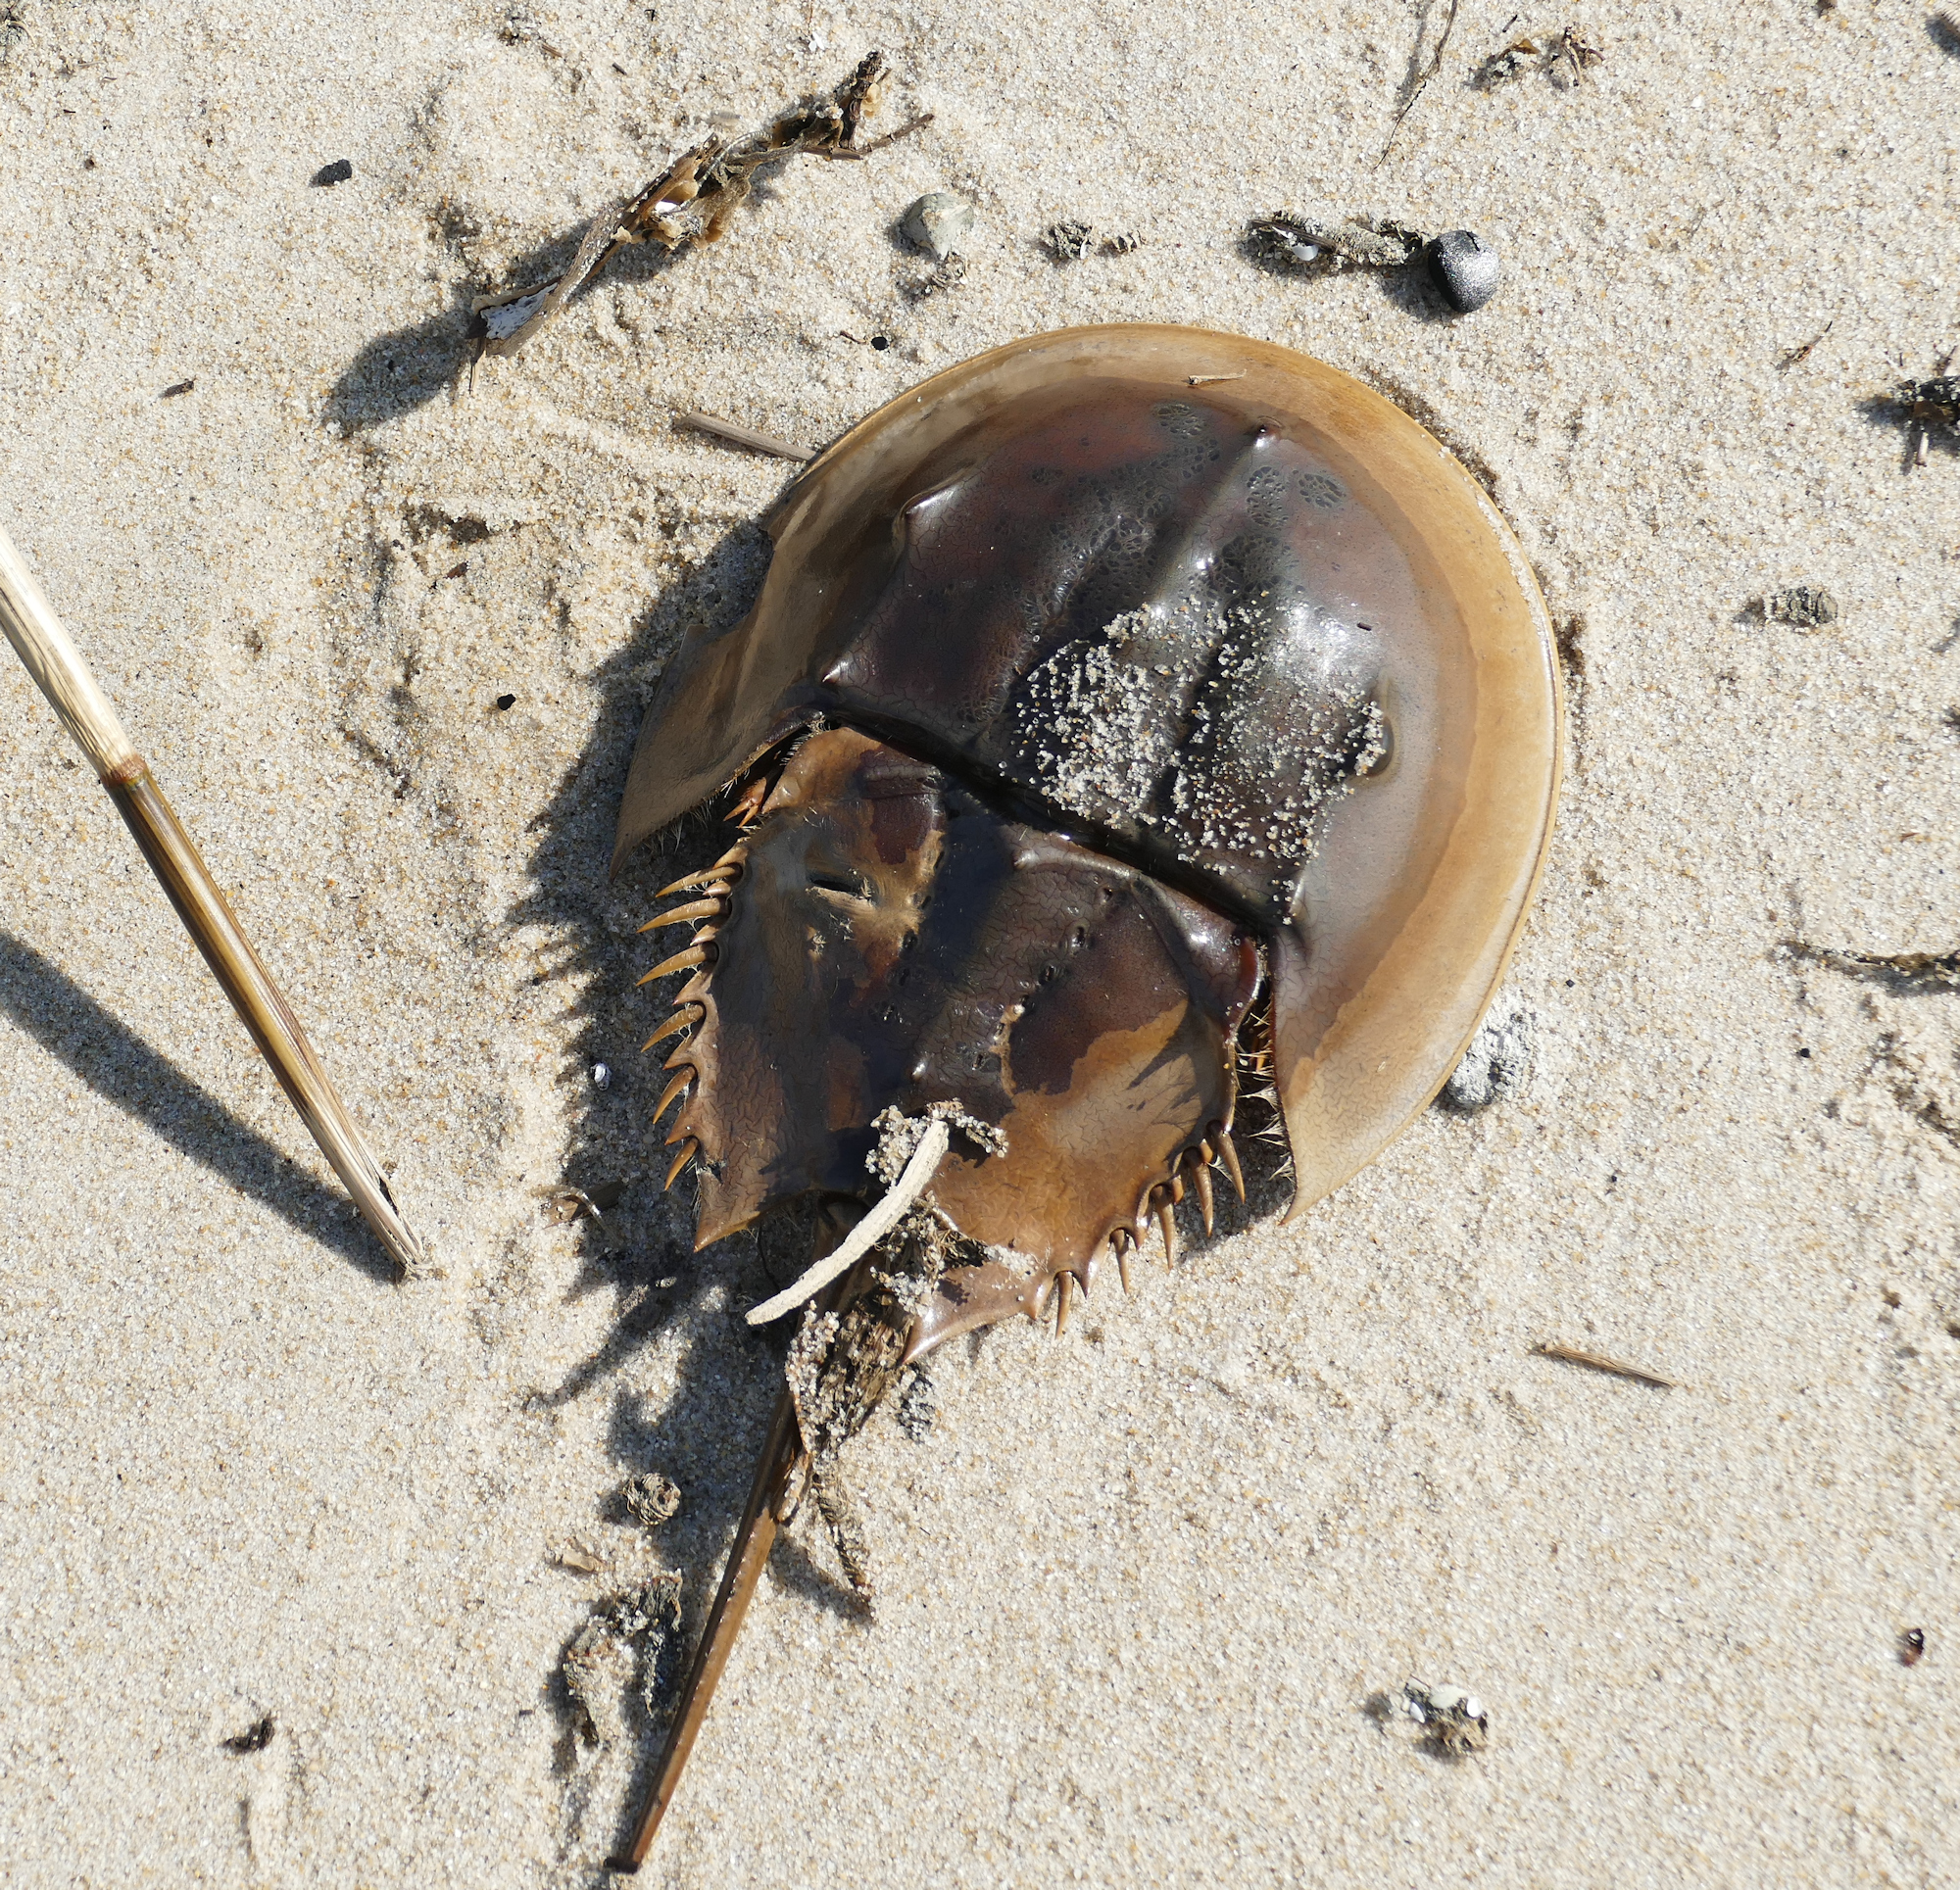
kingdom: Animalia
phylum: Arthropoda
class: Merostomata
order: Xiphosurida
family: Limulidae
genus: Limulus
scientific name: Limulus polyphemus
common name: Horseshoe crab
